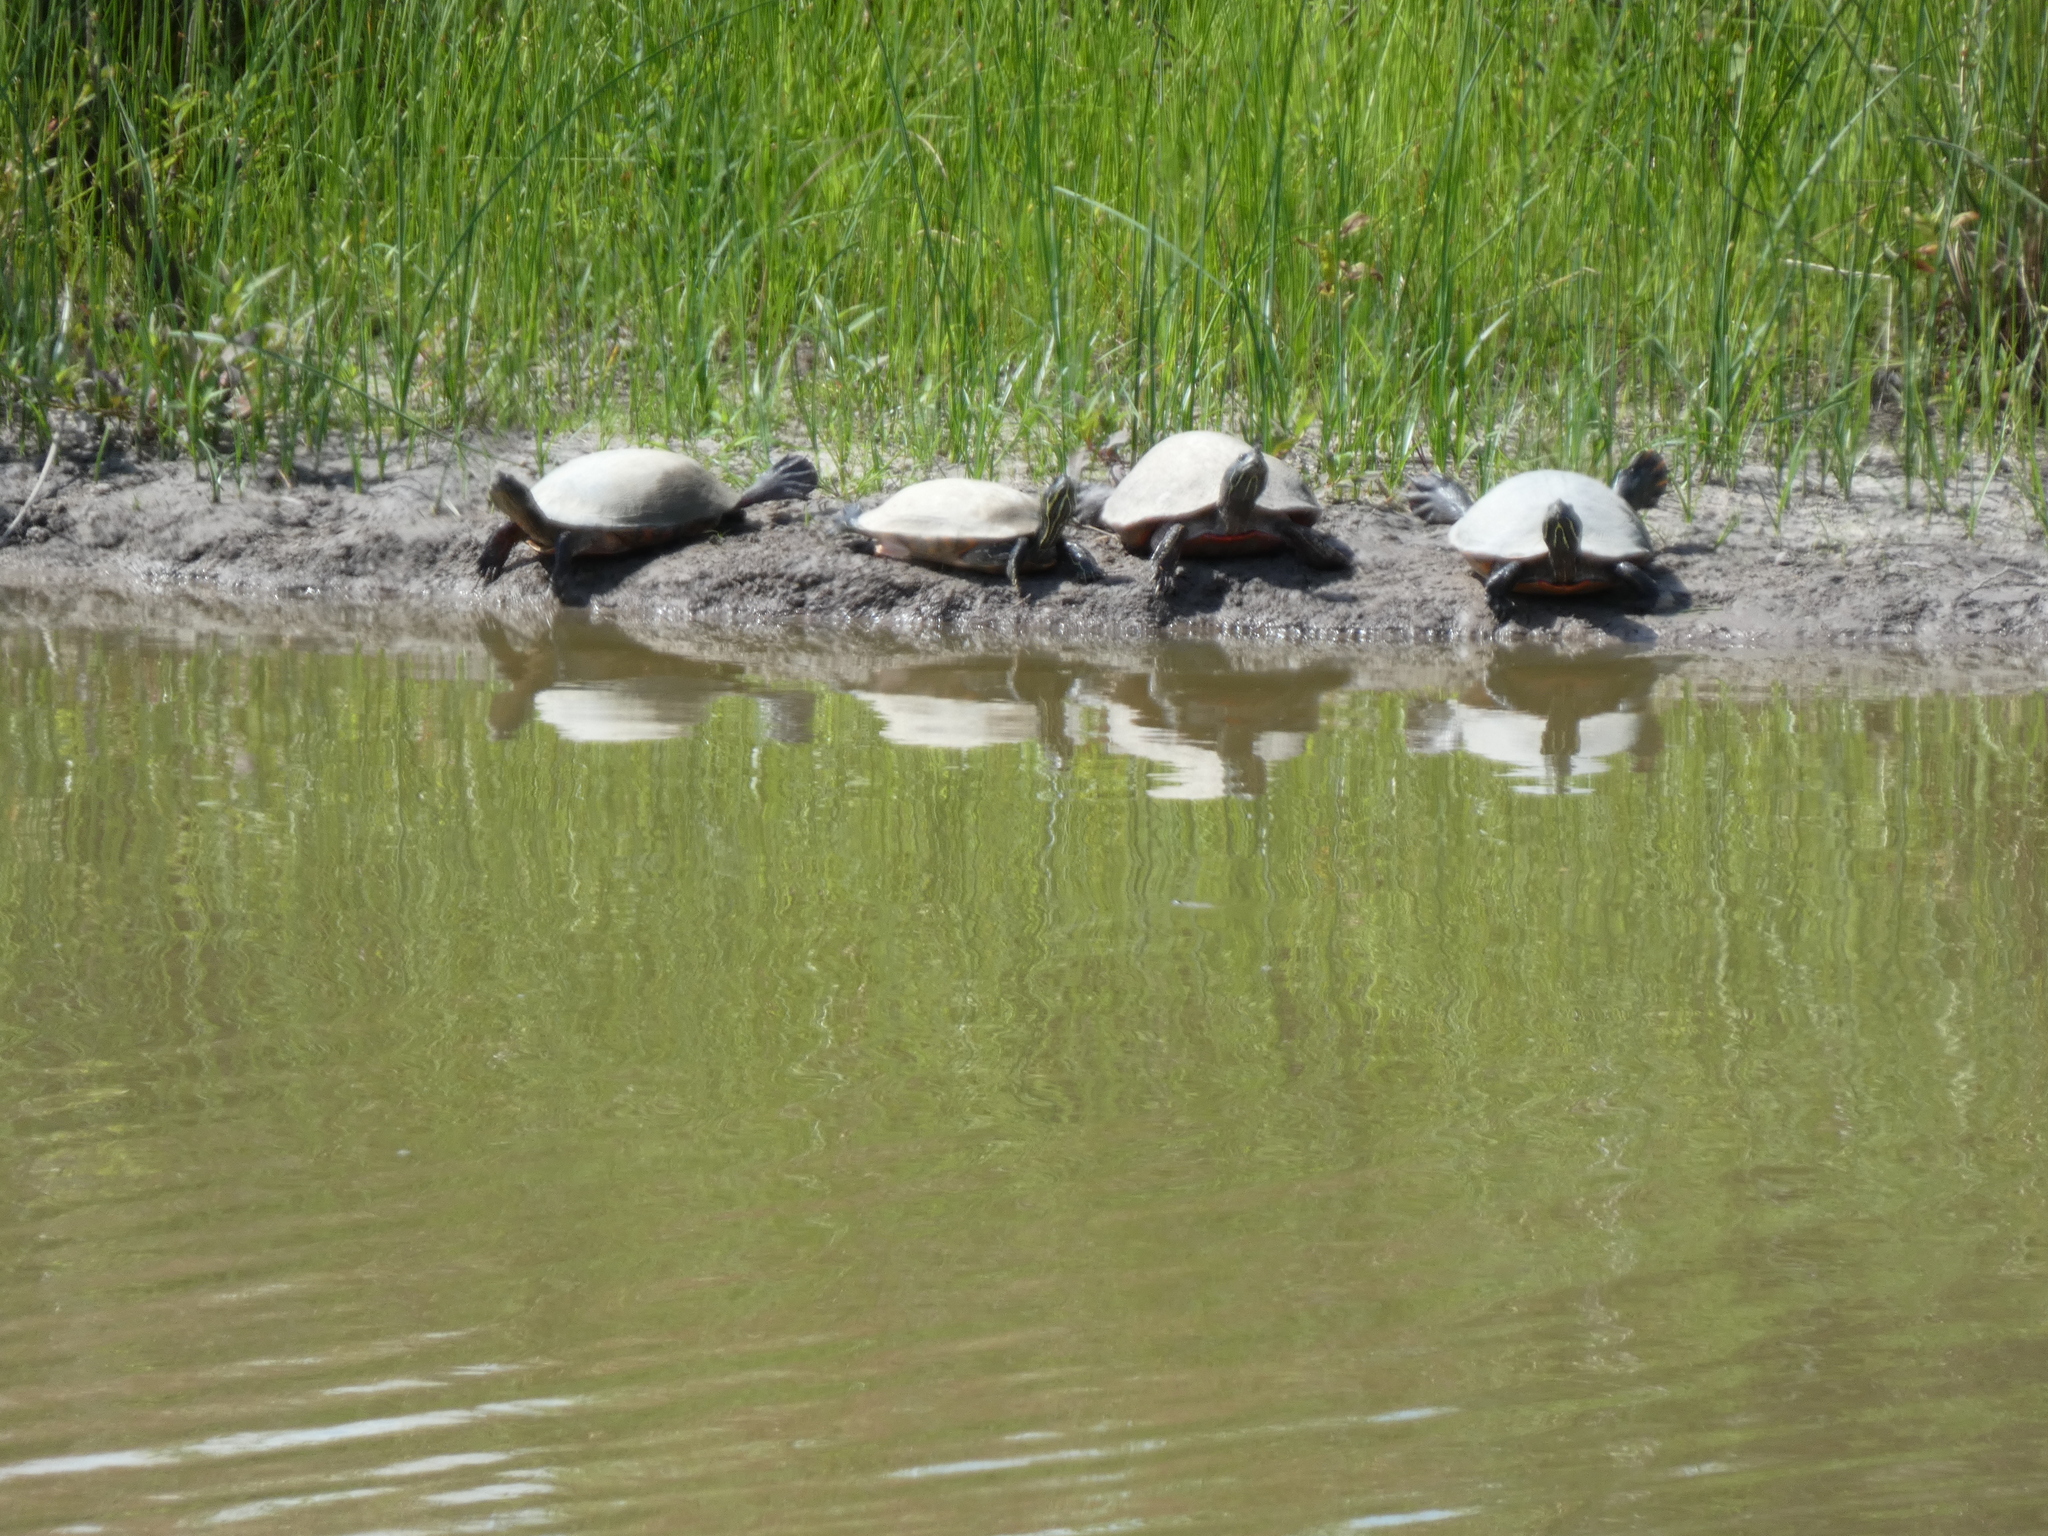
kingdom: Animalia
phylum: Chordata
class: Testudines
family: Emydidae
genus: Pseudemys
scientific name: Pseudemys rubriventris
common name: American red-bellied turtle
